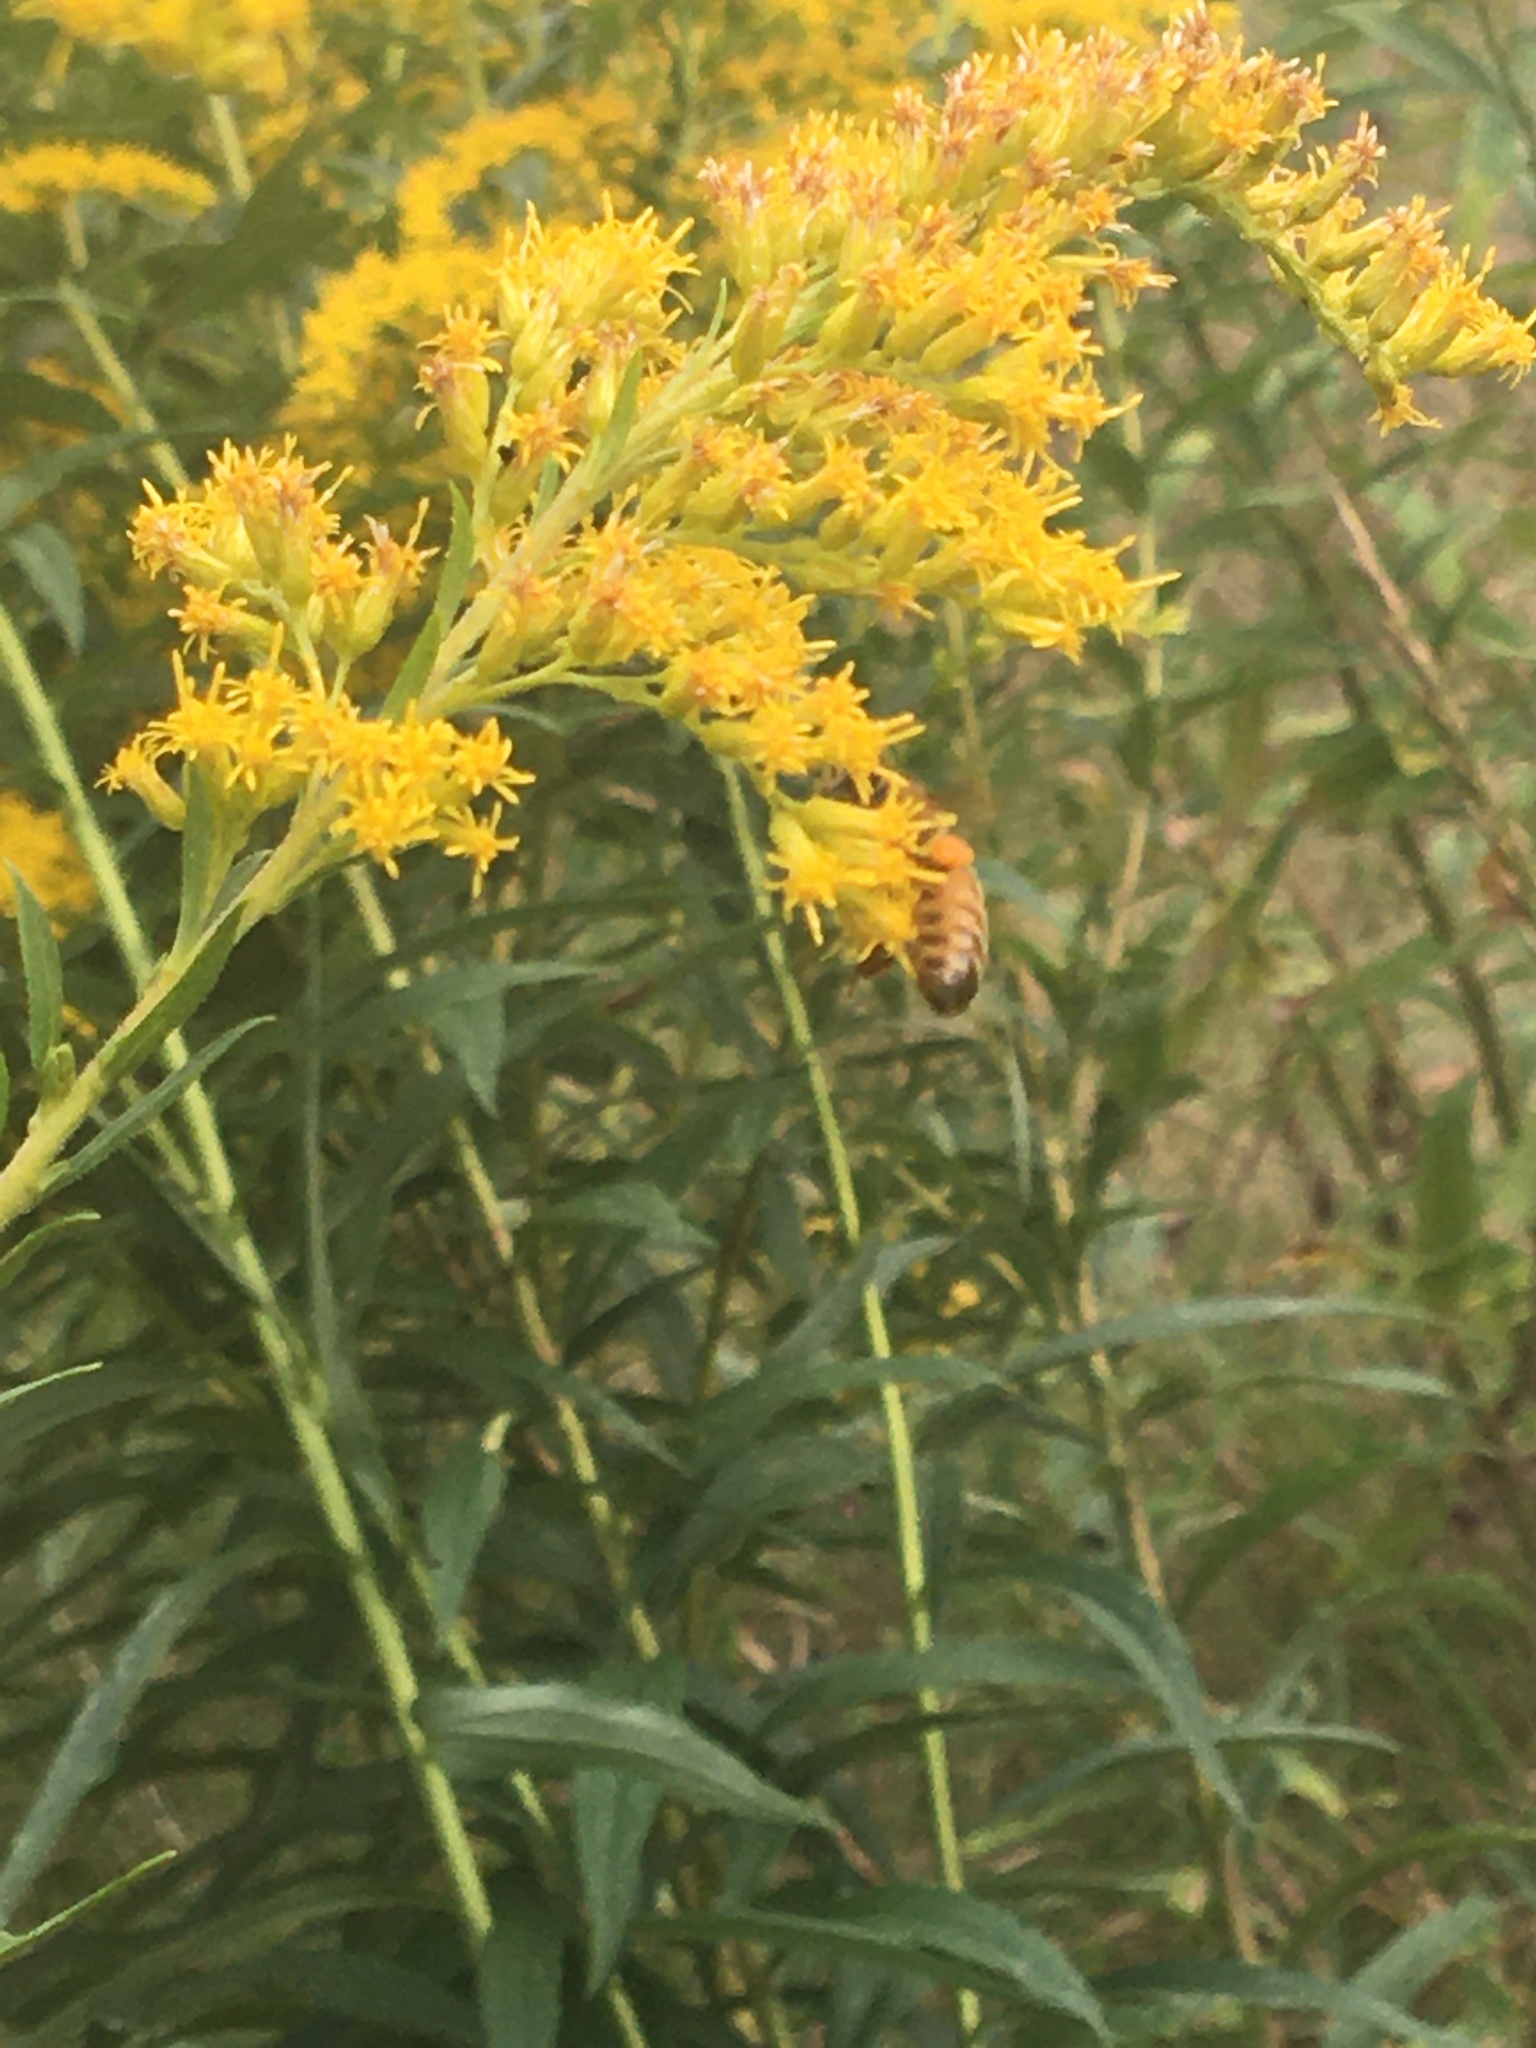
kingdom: Animalia
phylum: Arthropoda
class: Insecta
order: Hymenoptera
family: Apidae
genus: Apis
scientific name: Apis mellifera
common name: Honey bee
